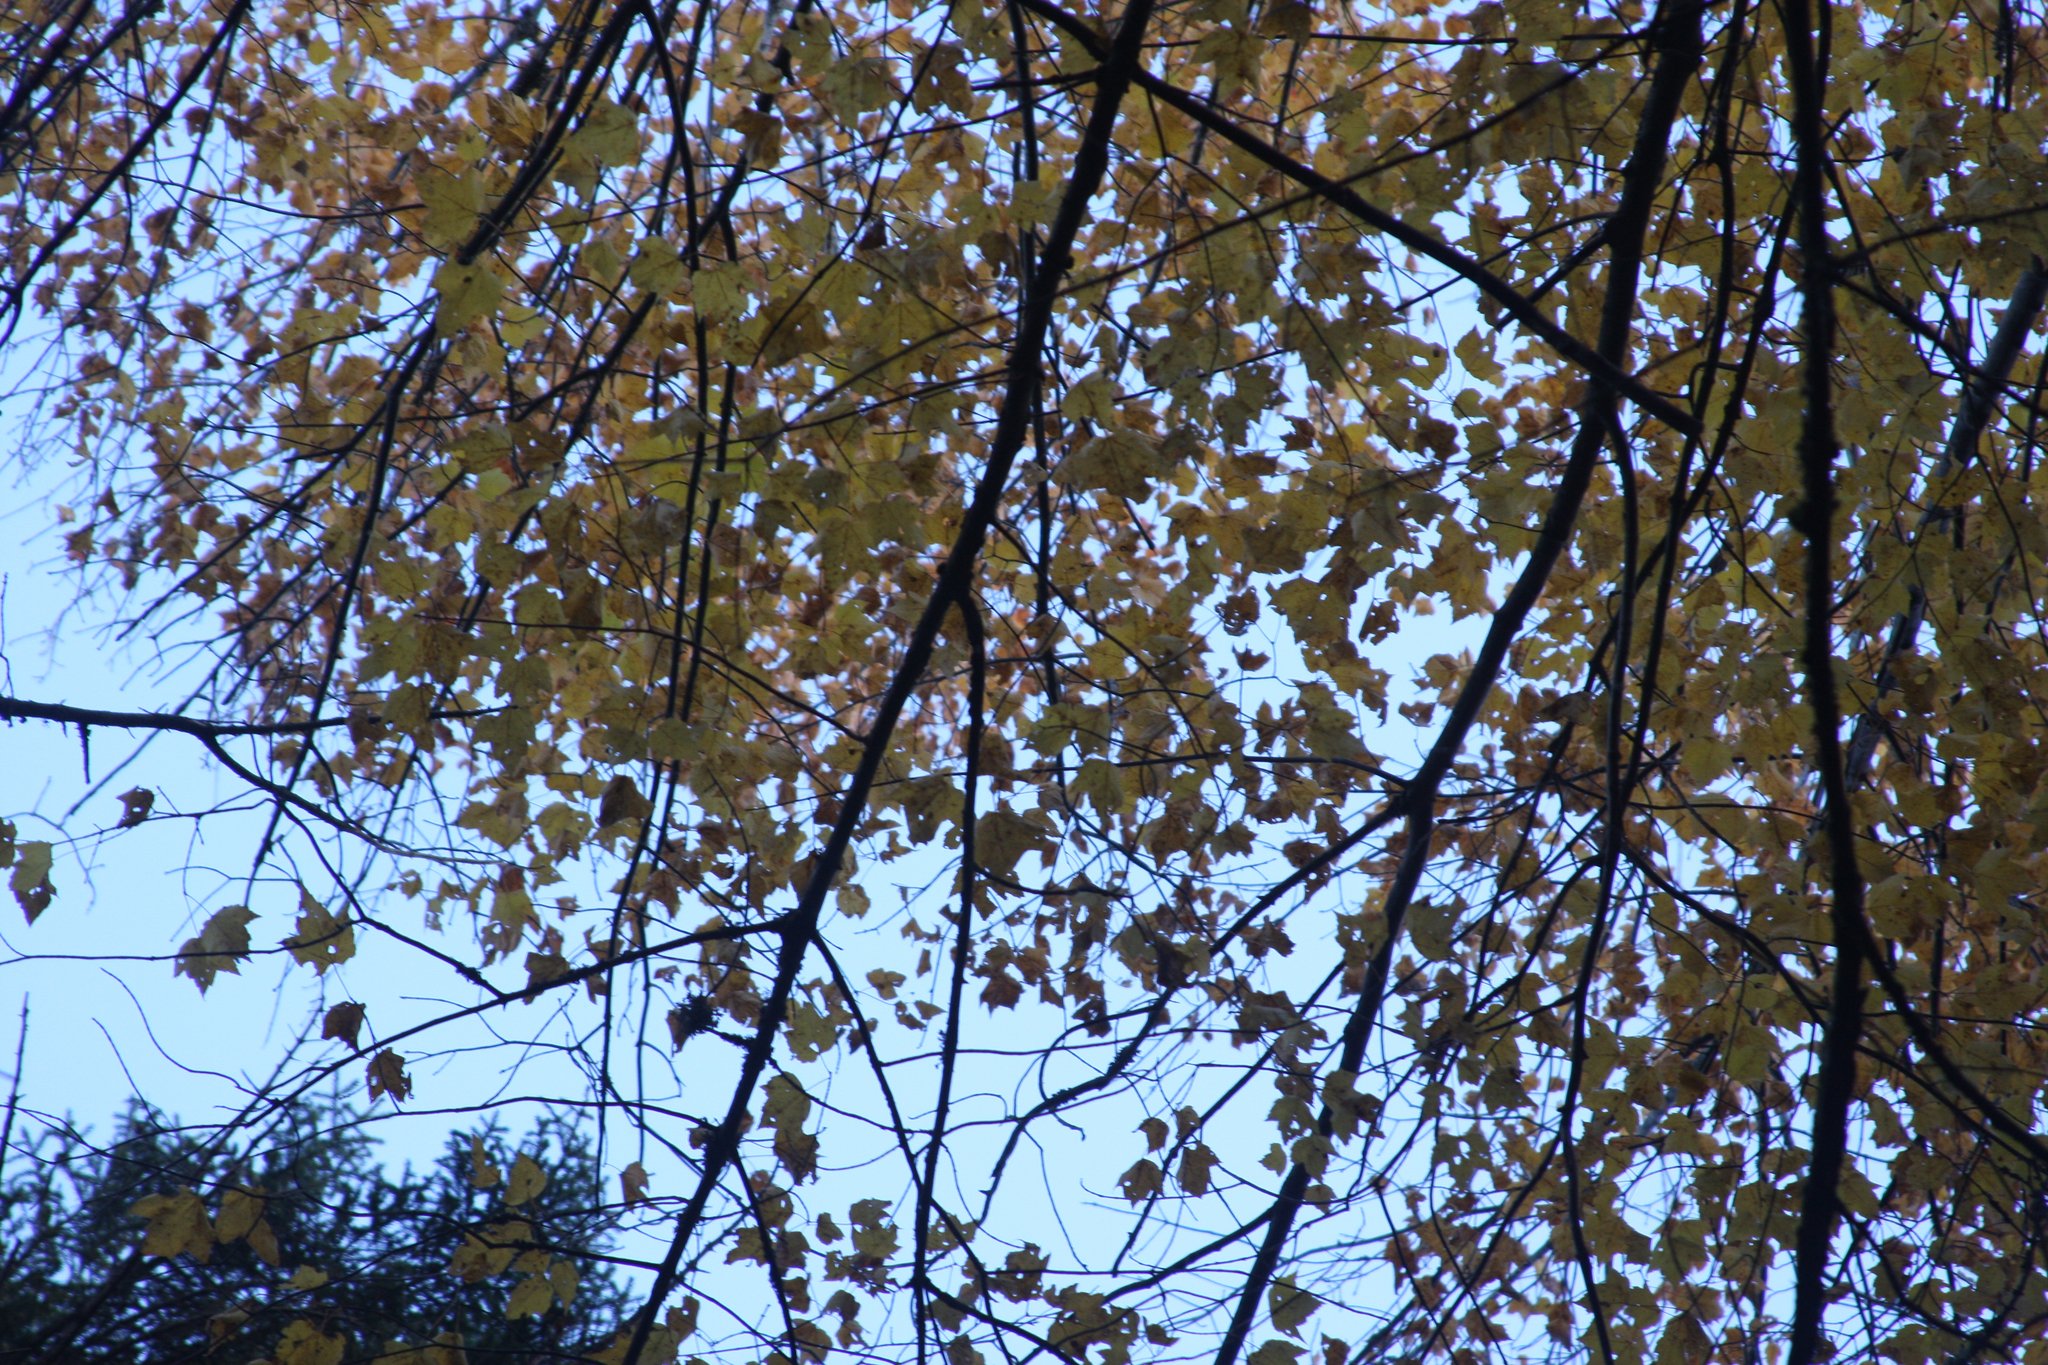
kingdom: Plantae
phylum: Tracheophyta
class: Magnoliopsida
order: Sapindales
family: Sapindaceae
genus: Acer
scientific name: Acer rubrum
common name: Red maple
